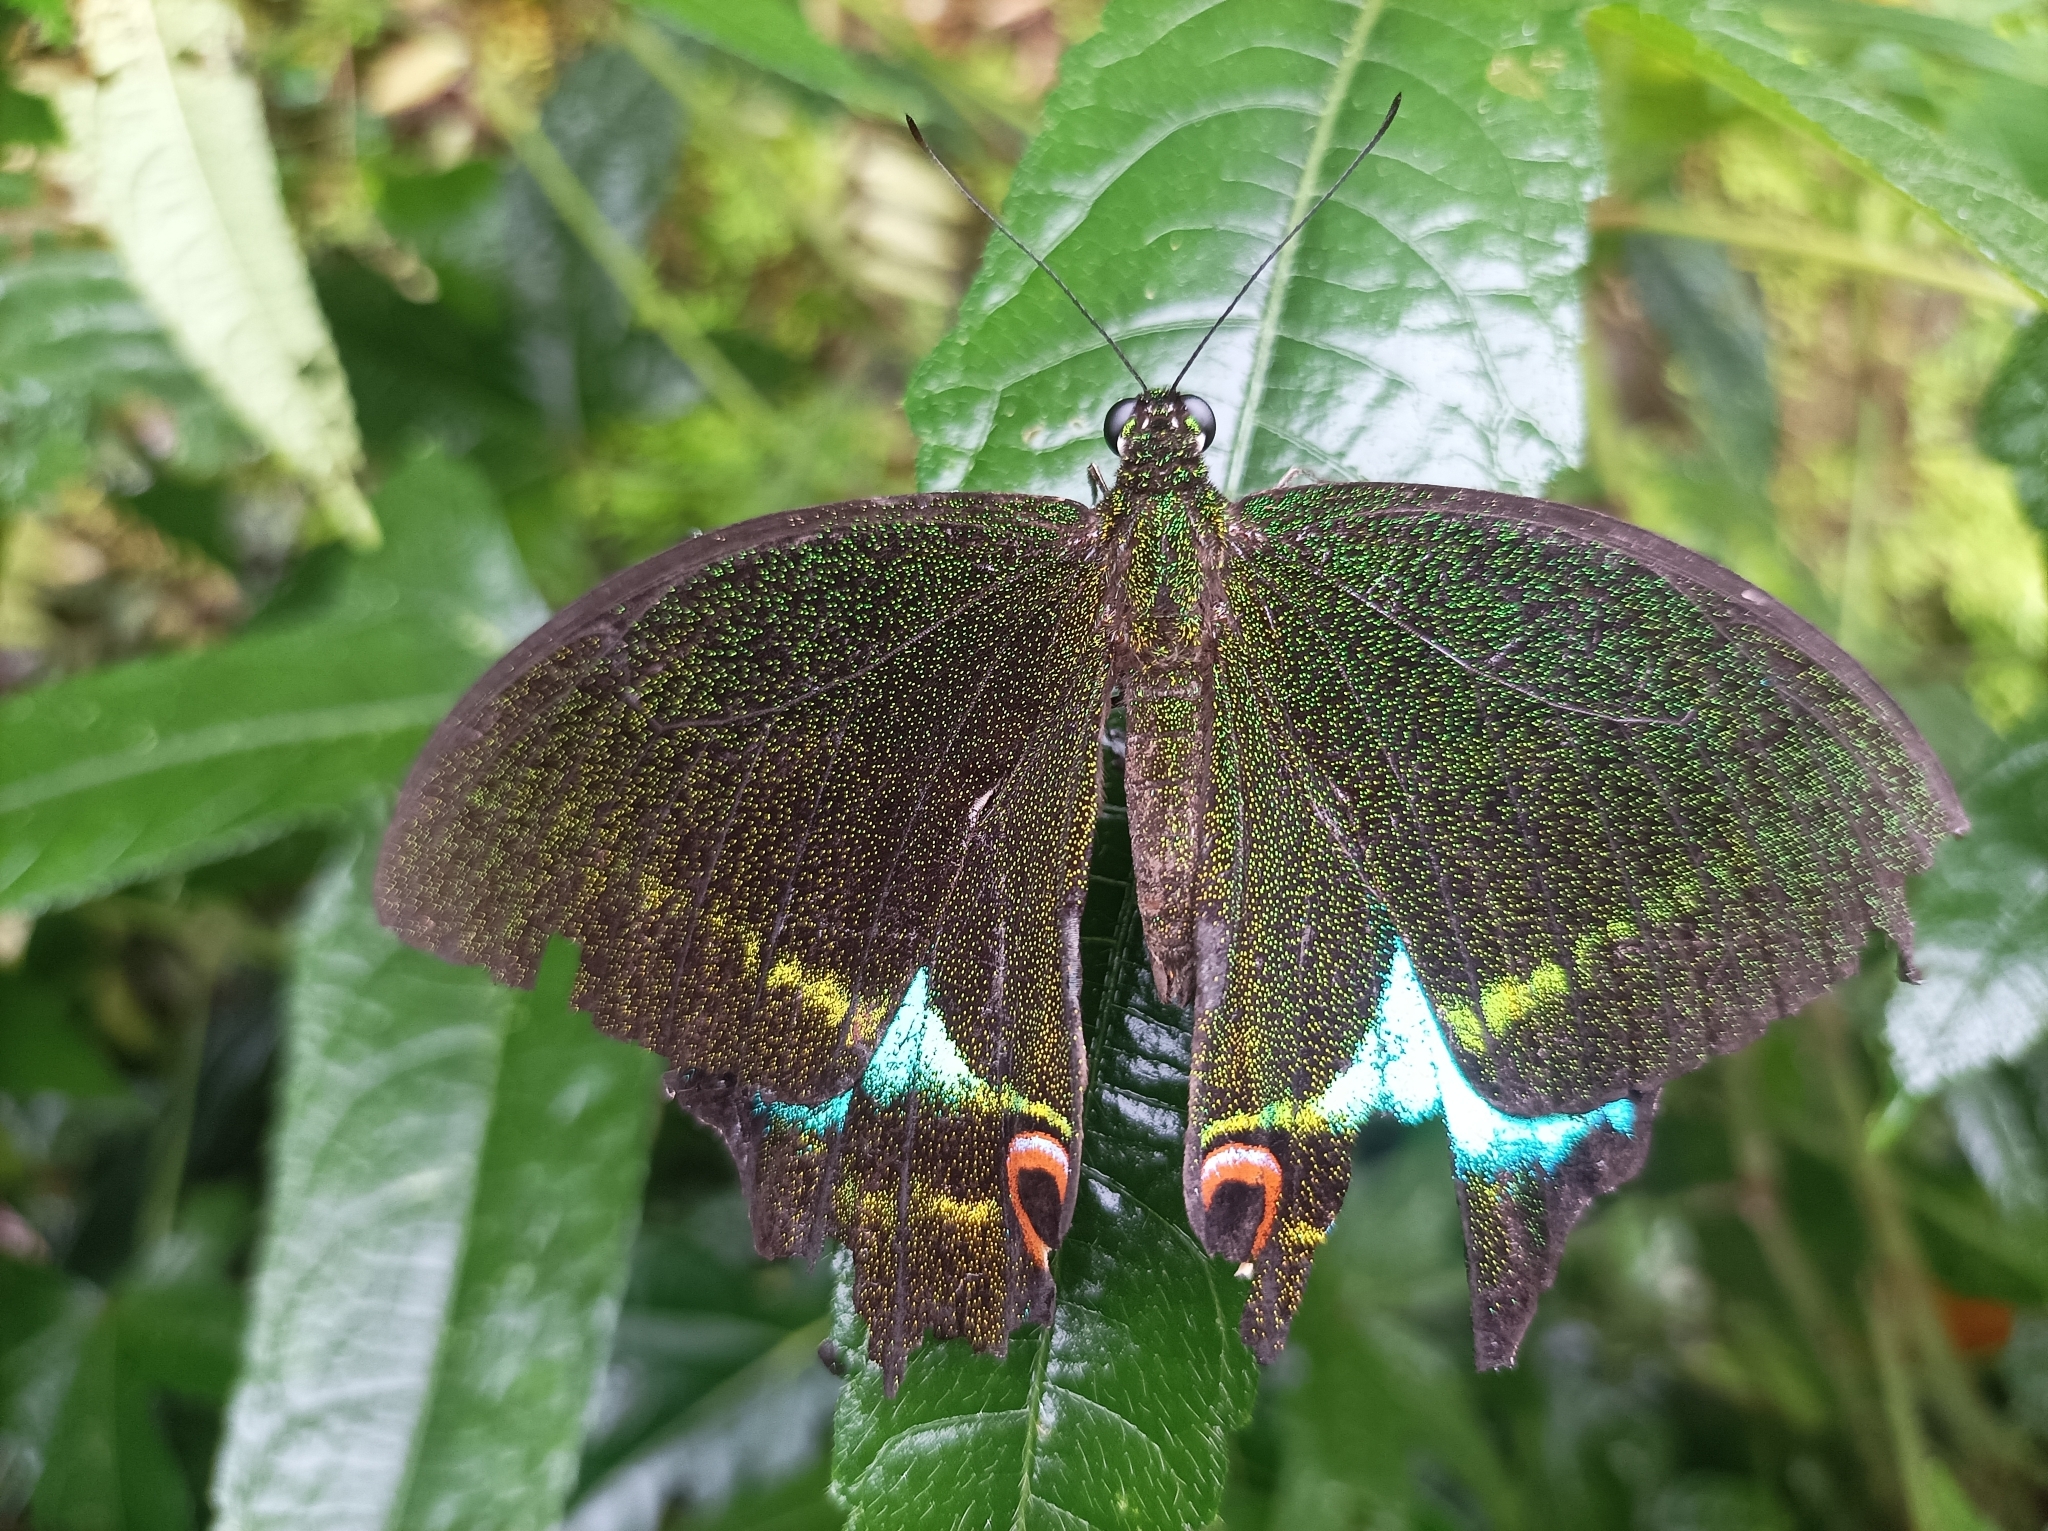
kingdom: Animalia
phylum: Arthropoda
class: Insecta
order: Lepidoptera
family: Papilionidae
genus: Papilio
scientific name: Papilio paris
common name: Paris peacock
